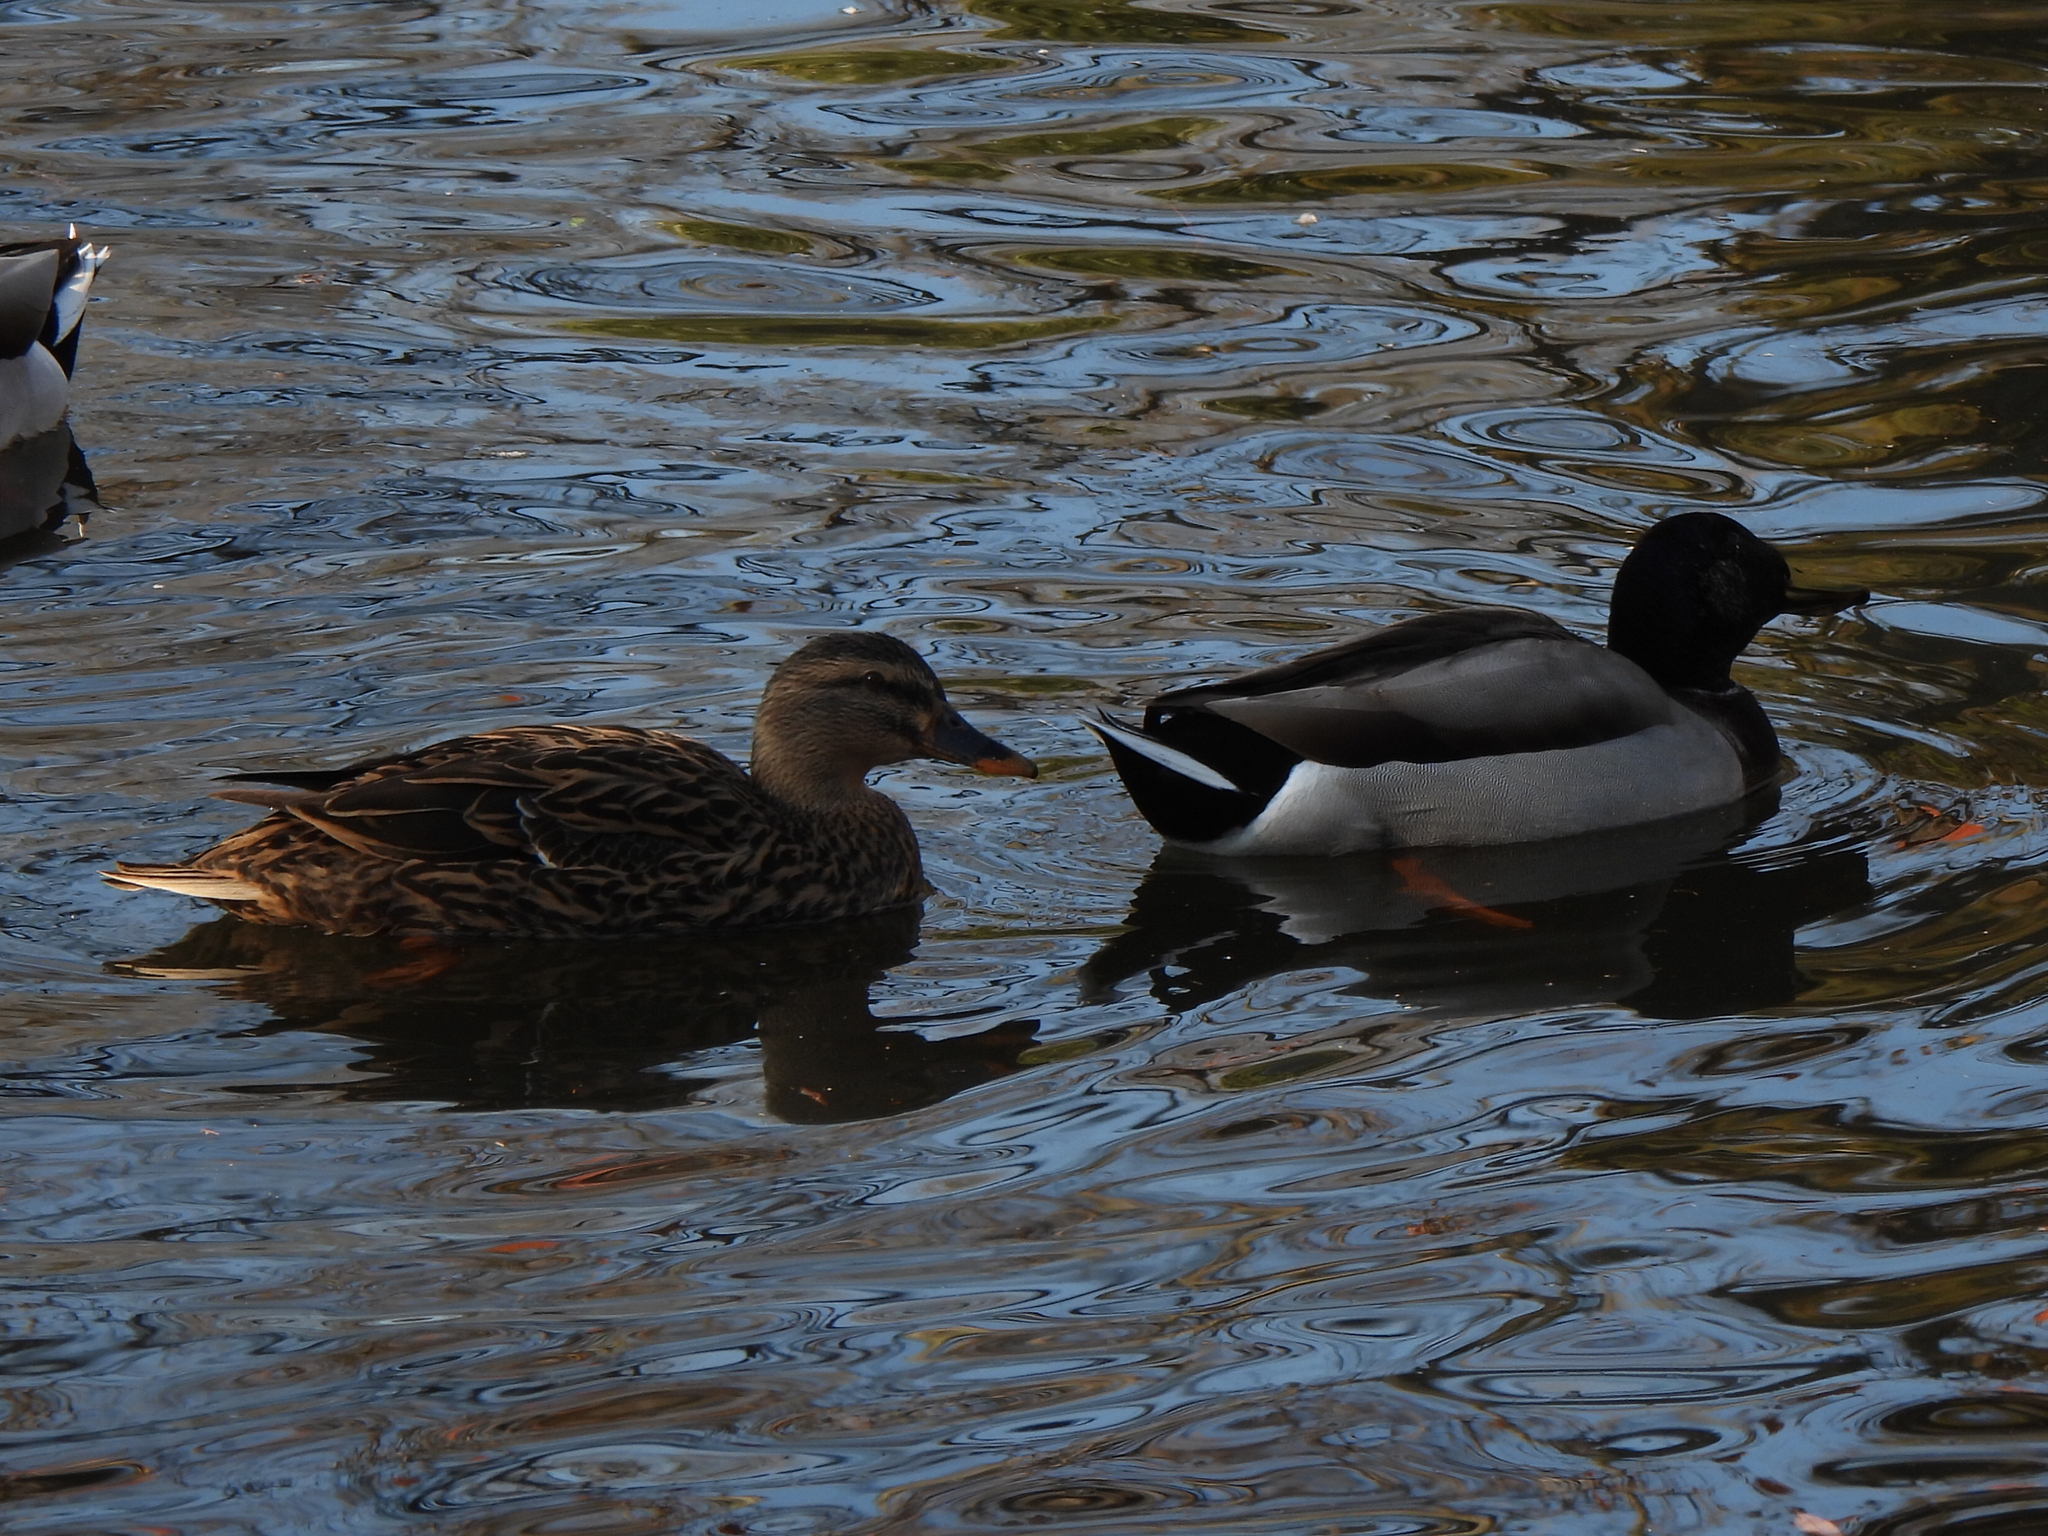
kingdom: Animalia
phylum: Chordata
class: Aves
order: Anseriformes
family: Anatidae
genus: Anas
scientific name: Anas platyrhynchos
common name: Mallard
